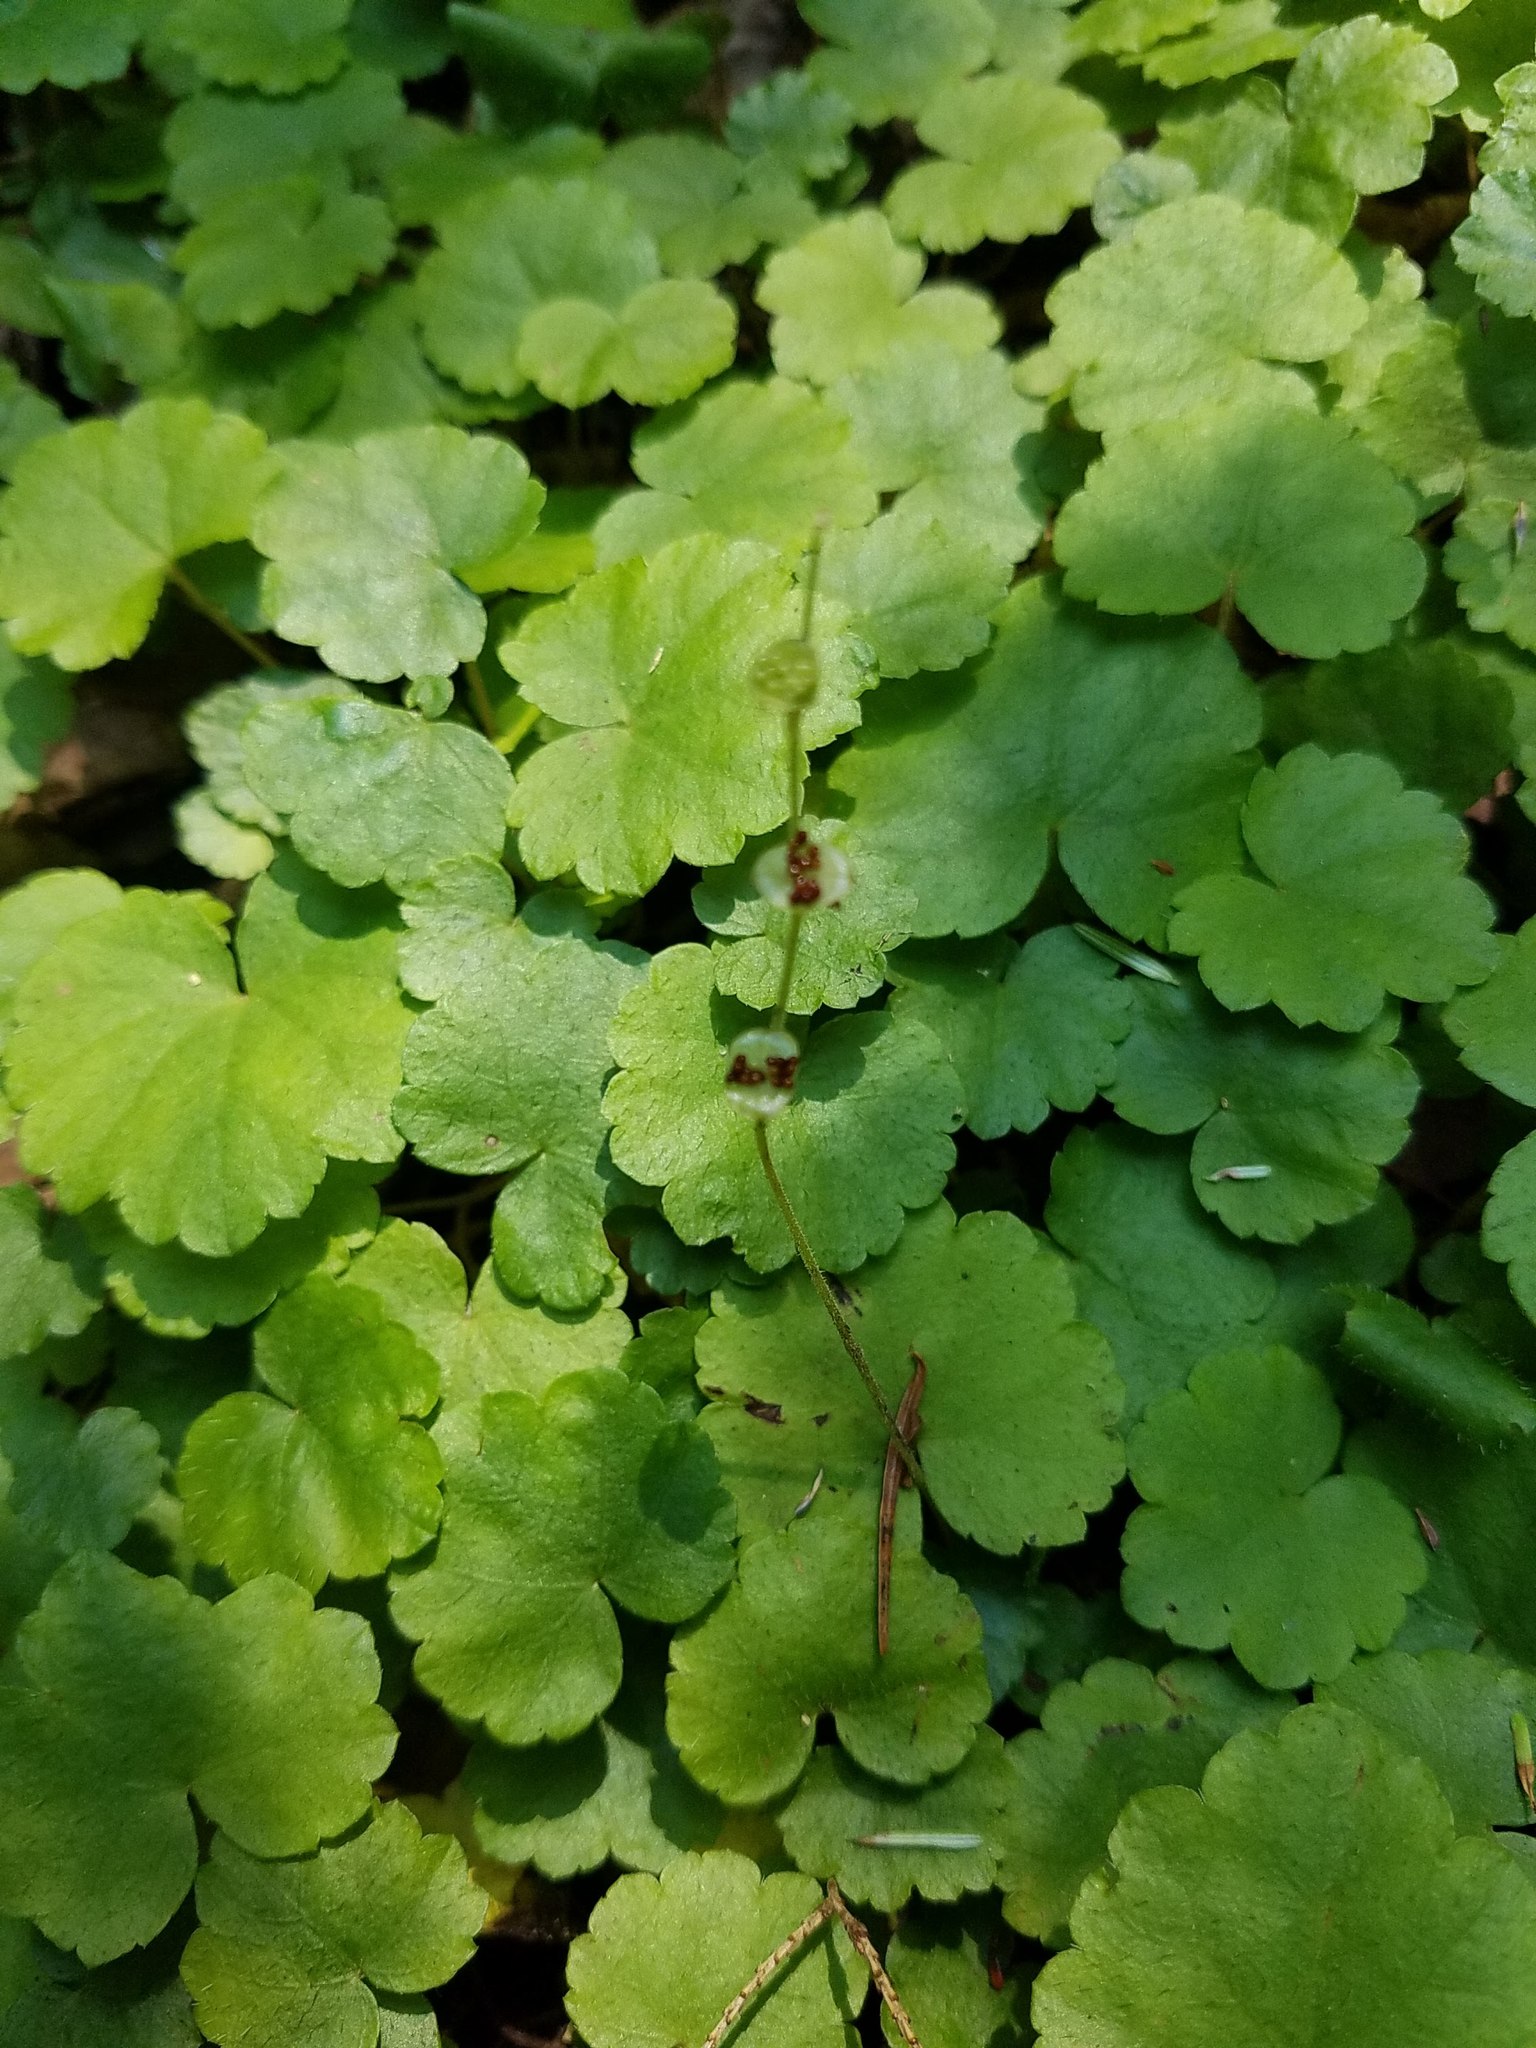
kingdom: Plantae
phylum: Tracheophyta
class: Magnoliopsida
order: Saxifragales
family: Saxifragaceae
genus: Mitella
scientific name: Mitella nuda
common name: Bare-stemmed bishop's-cap
